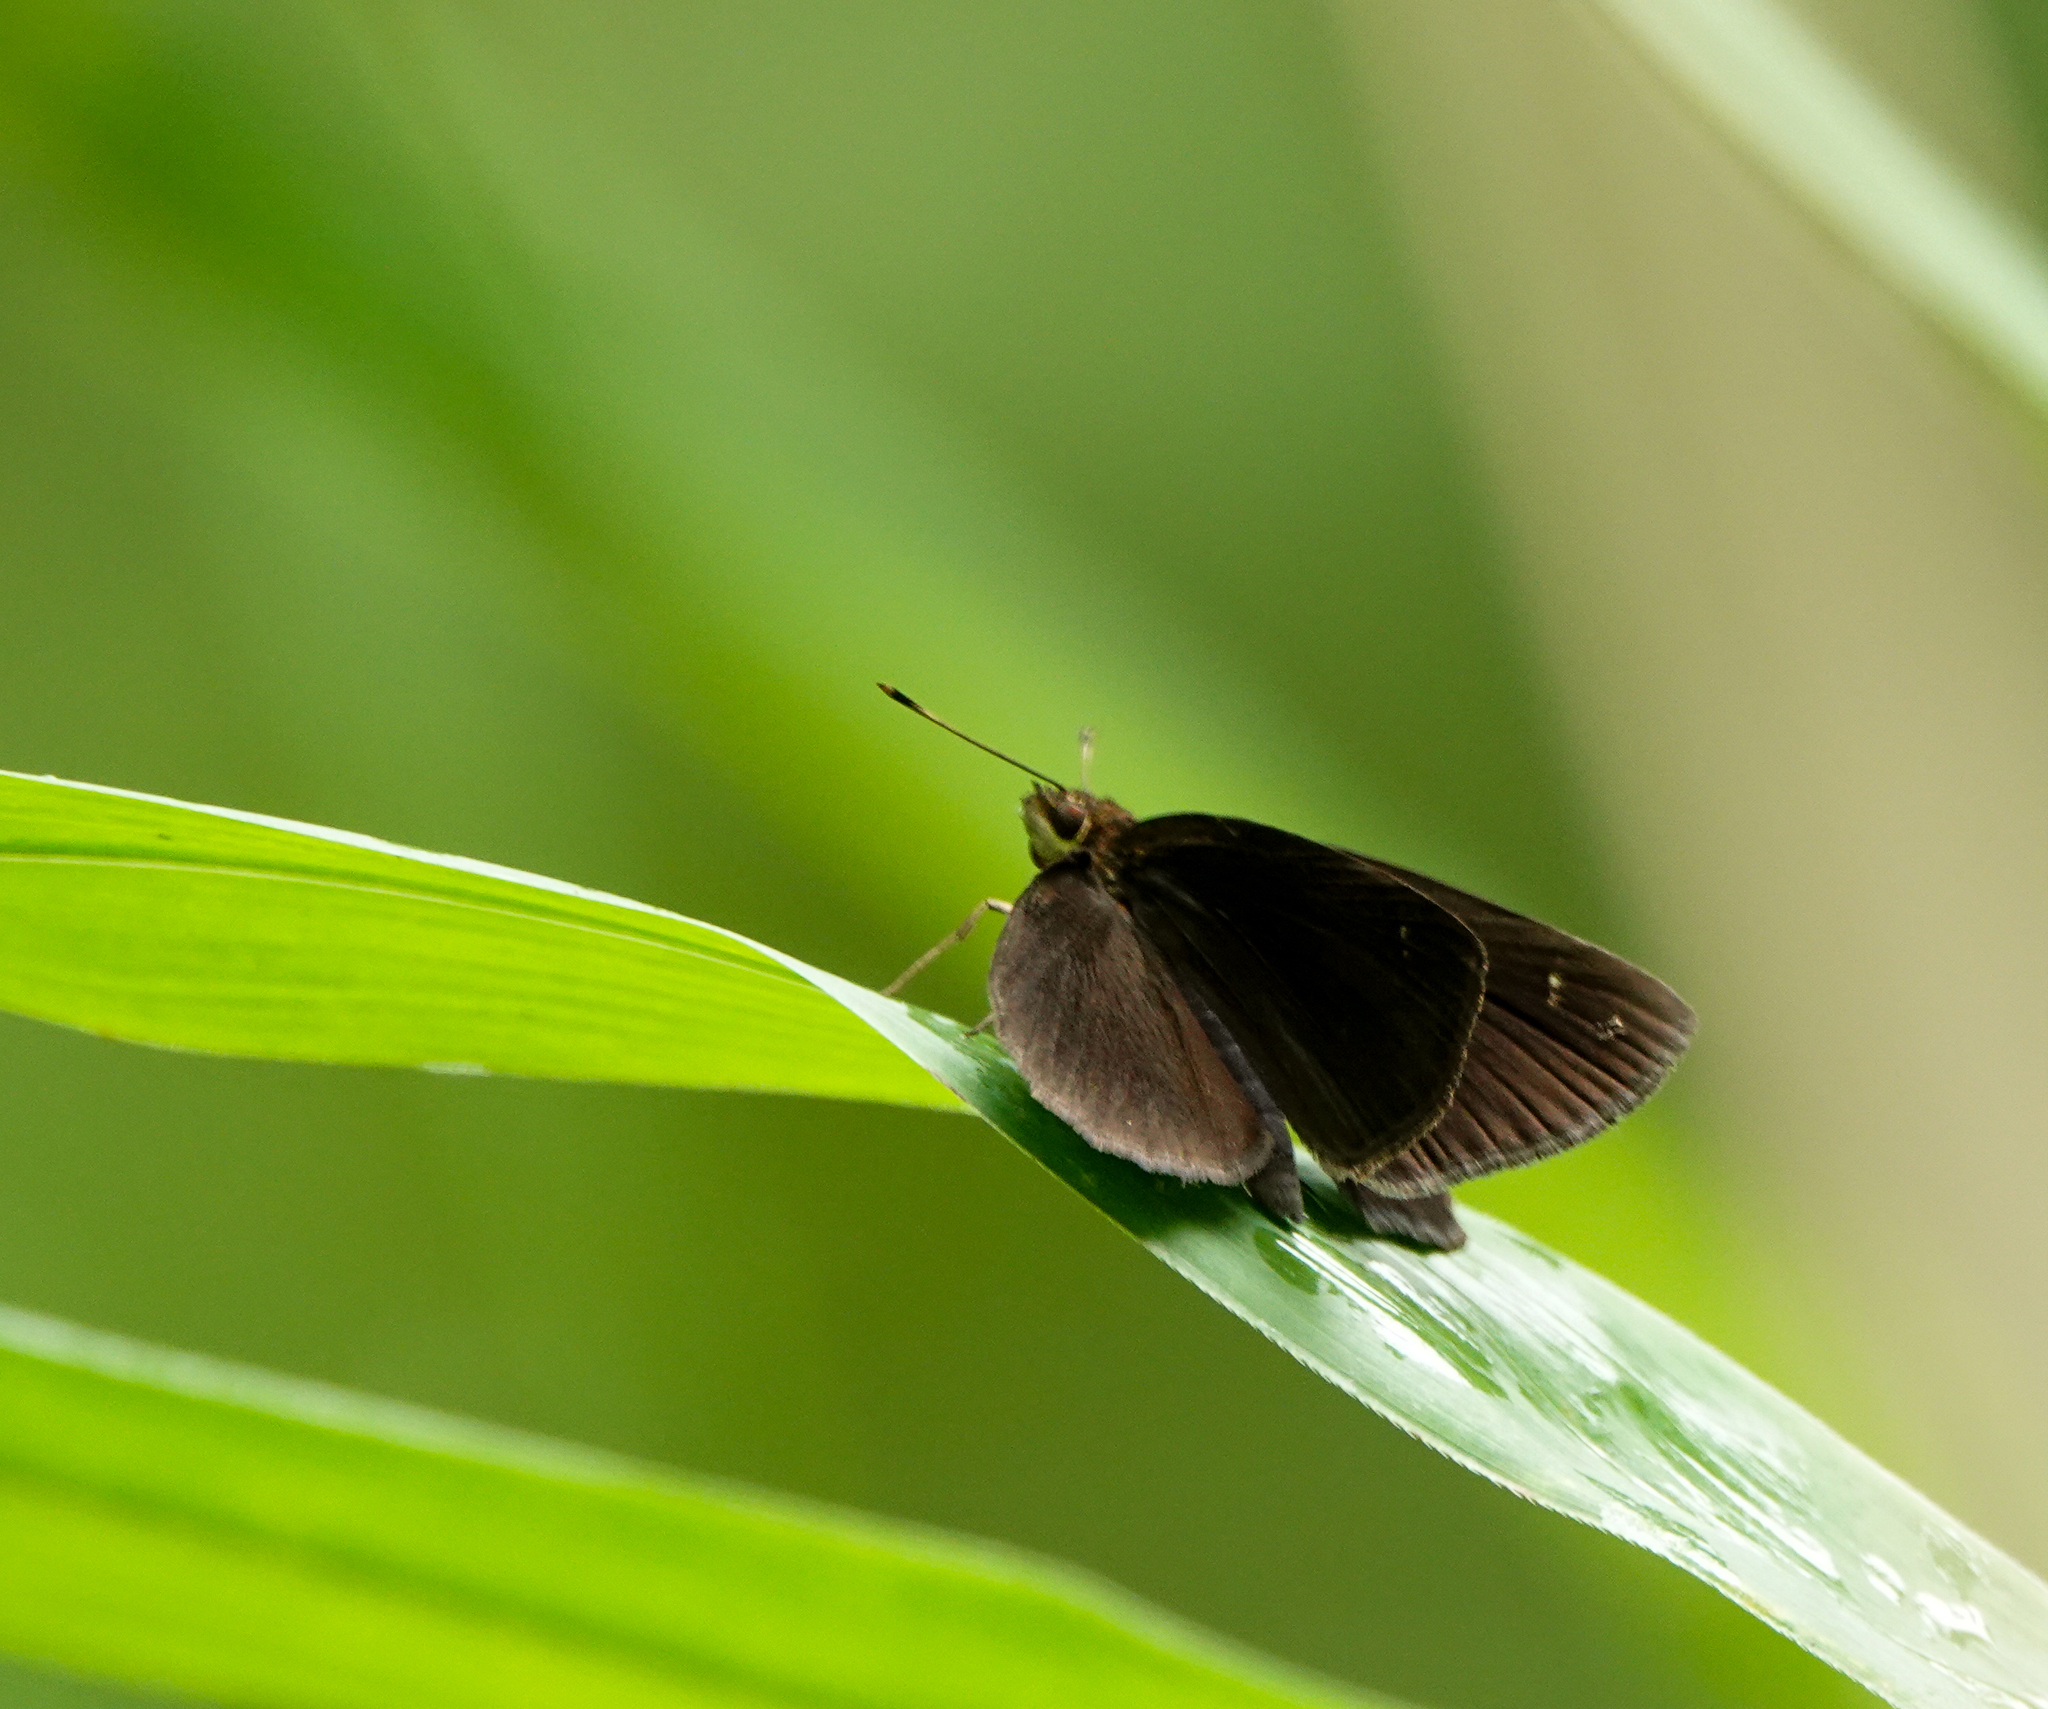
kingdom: Animalia
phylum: Arthropoda
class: Insecta
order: Lepidoptera
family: Hesperiidae
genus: Astictopterus
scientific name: Astictopterus jama
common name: Forest hopper
